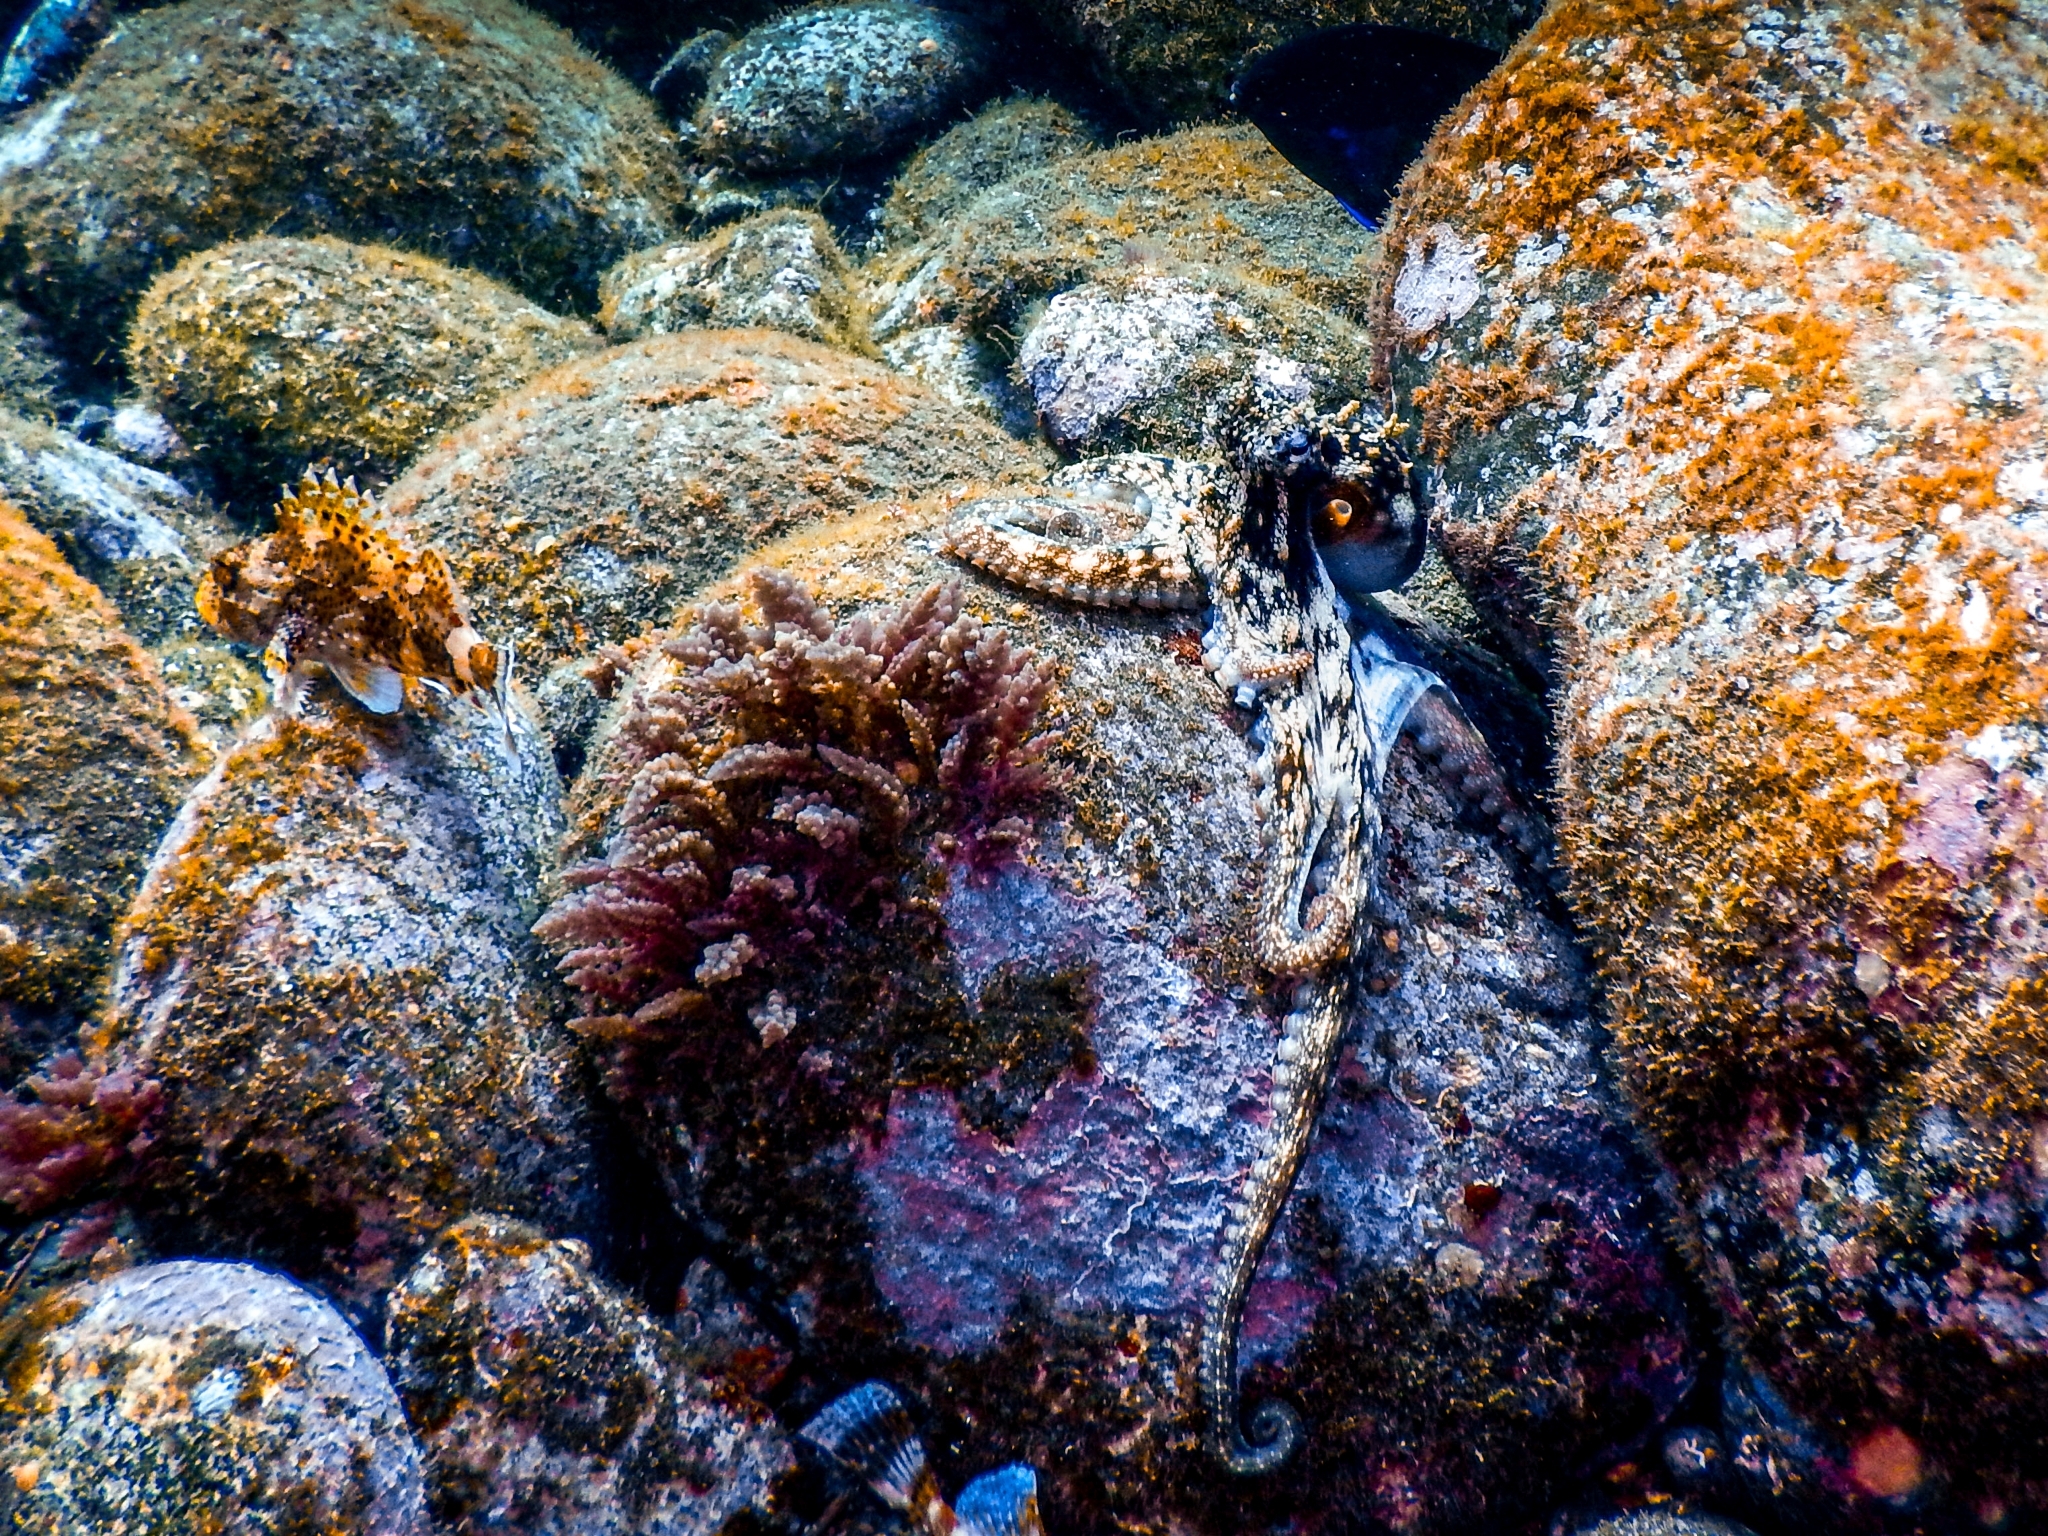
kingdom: Animalia
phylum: Mollusca
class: Cephalopoda
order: Octopoda
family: Octopodidae
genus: Octopus
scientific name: Octopus vulgaris
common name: Common octopus
